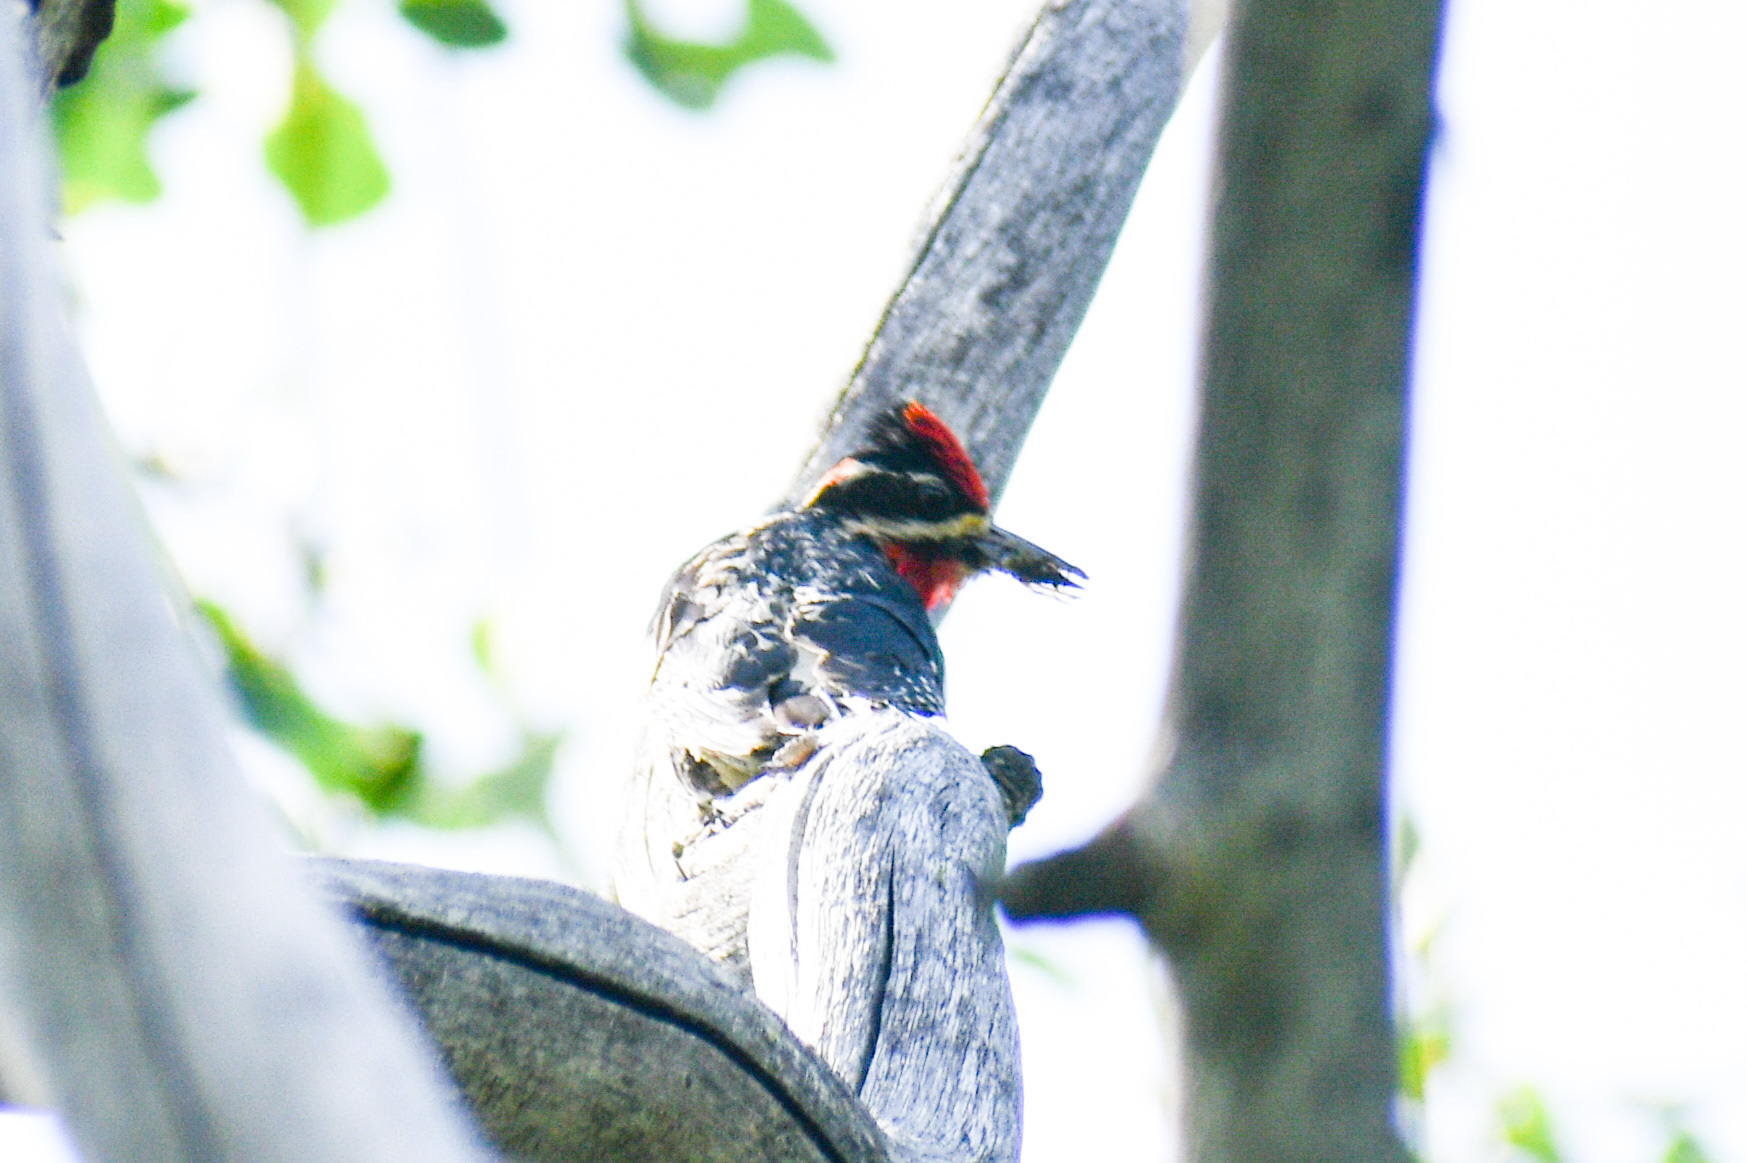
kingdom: Animalia
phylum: Chordata
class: Aves
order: Piciformes
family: Picidae
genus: Sphyrapicus
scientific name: Sphyrapicus nuchalis
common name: Red-naped sapsucker
